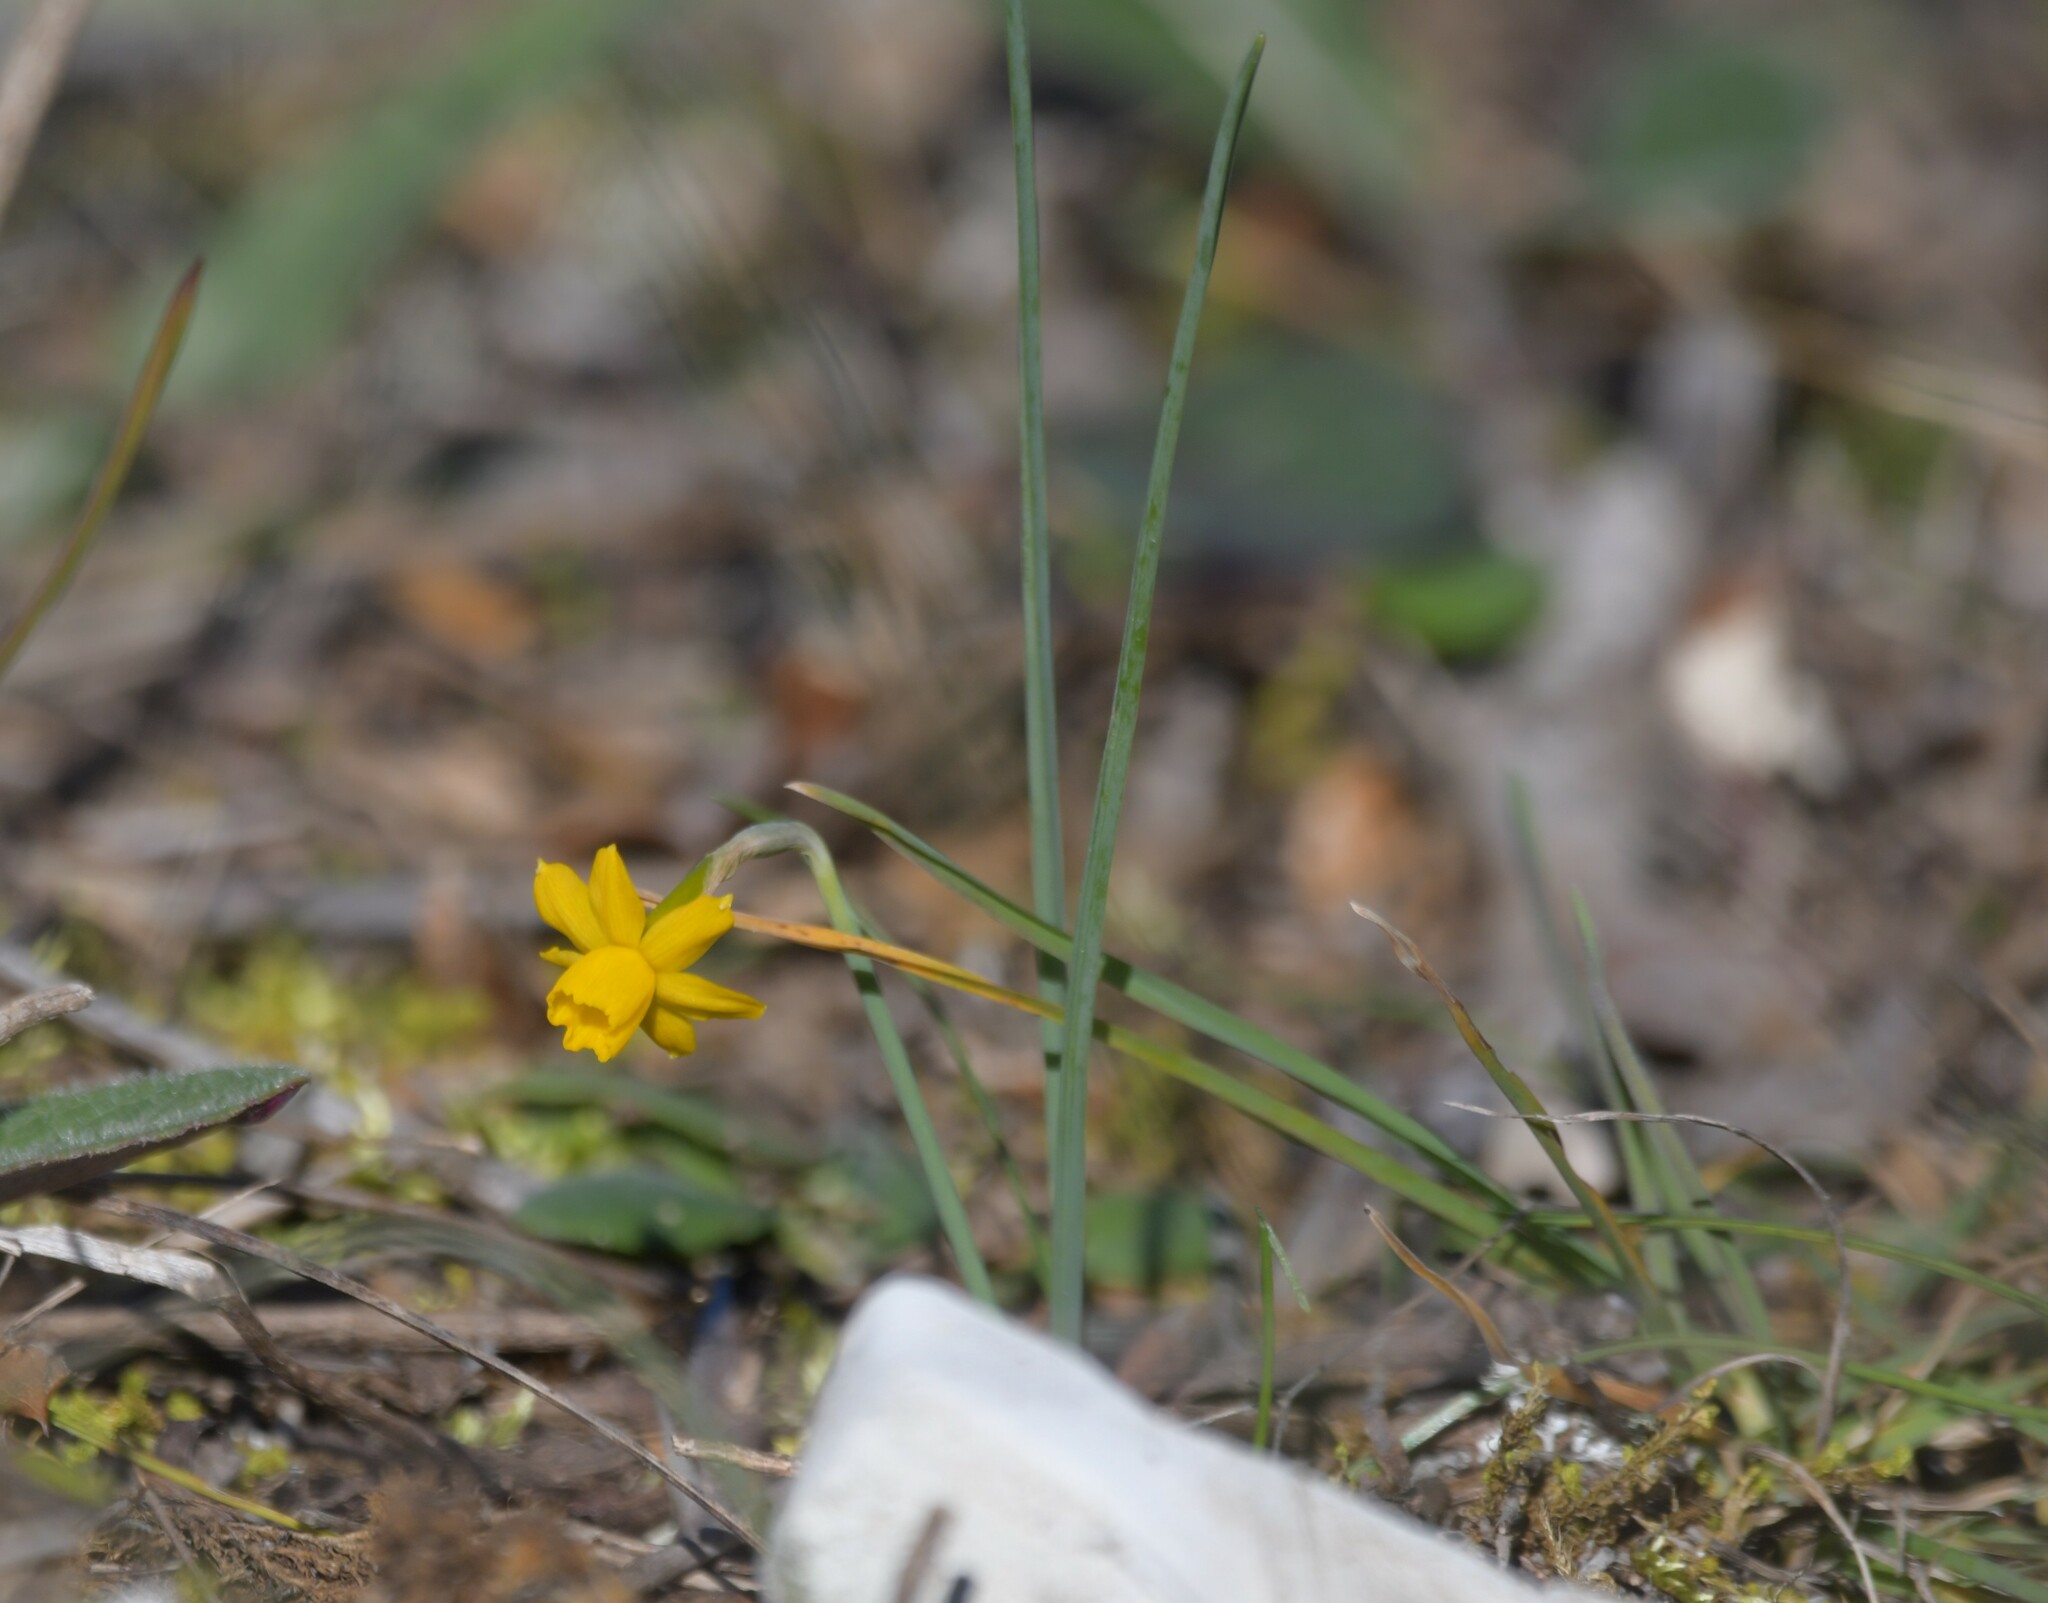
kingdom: Plantae
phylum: Tracheophyta
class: Liliopsida
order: Asparagales
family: Amaryllidaceae
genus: Narcissus
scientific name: Narcissus calcicola
